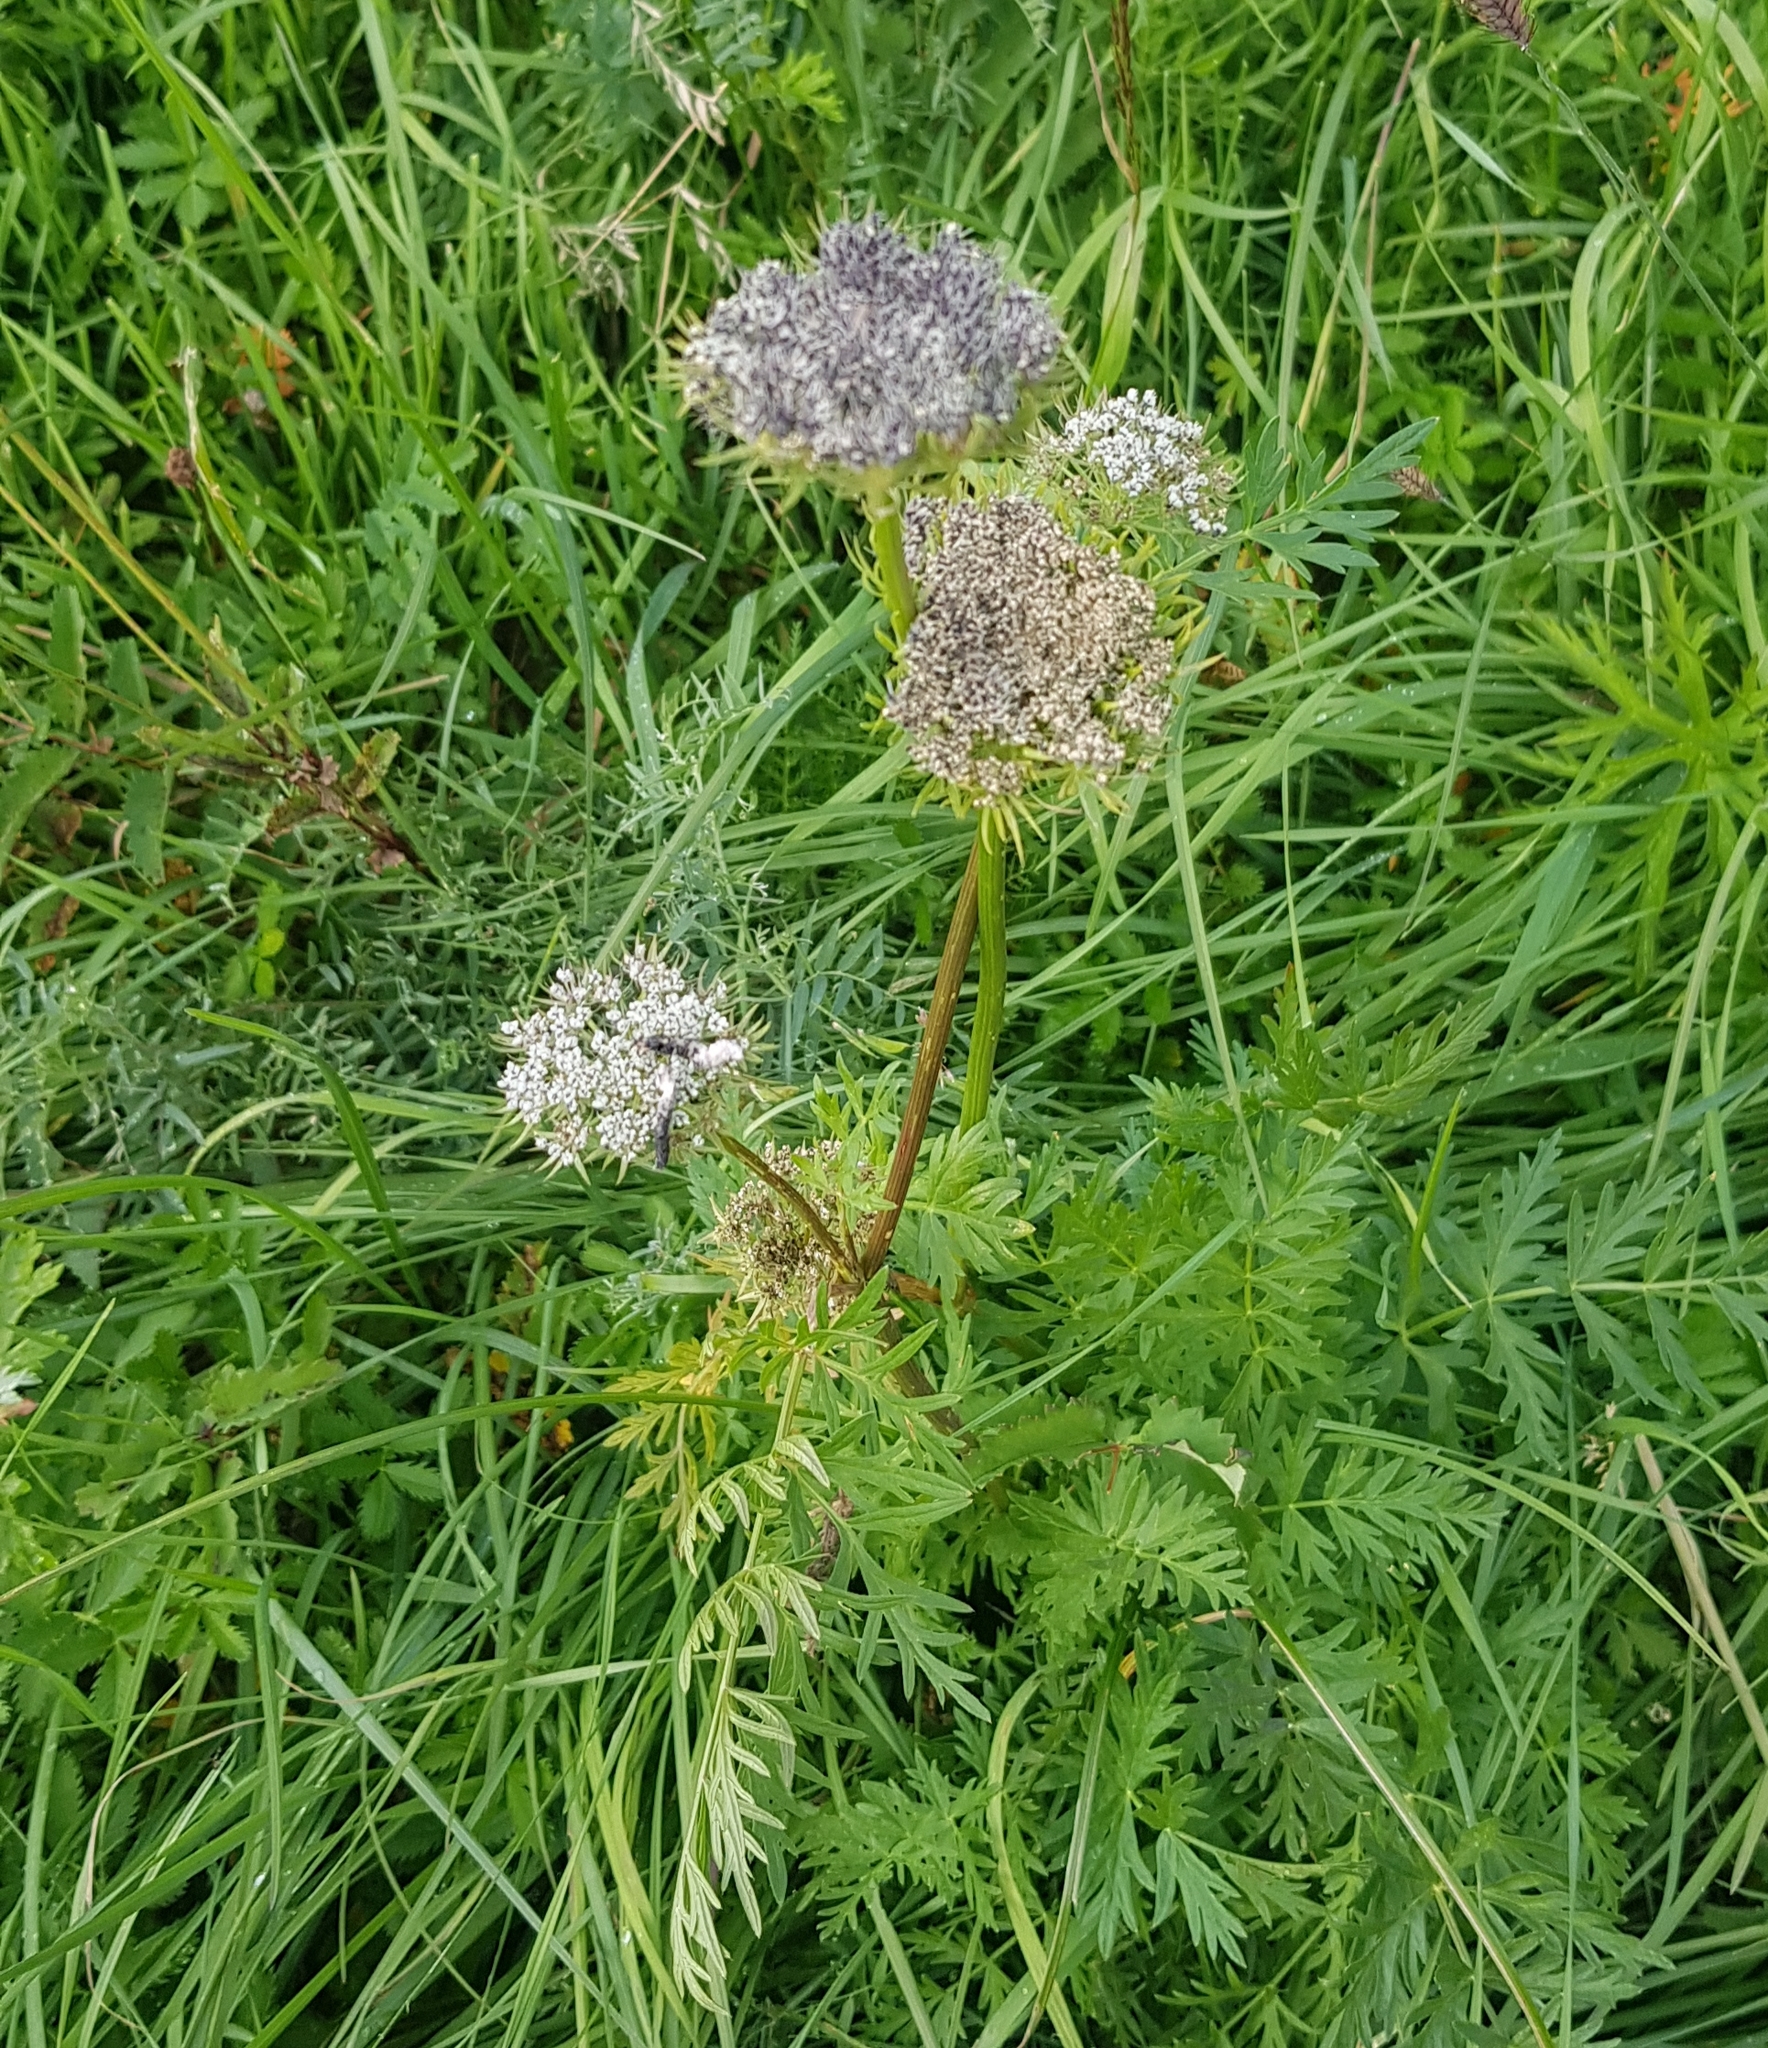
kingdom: Plantae
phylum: Tracheophyta
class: Magnoliopsida
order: Apiales
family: Apiaceae
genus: Seseli
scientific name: Seseli seseloides
